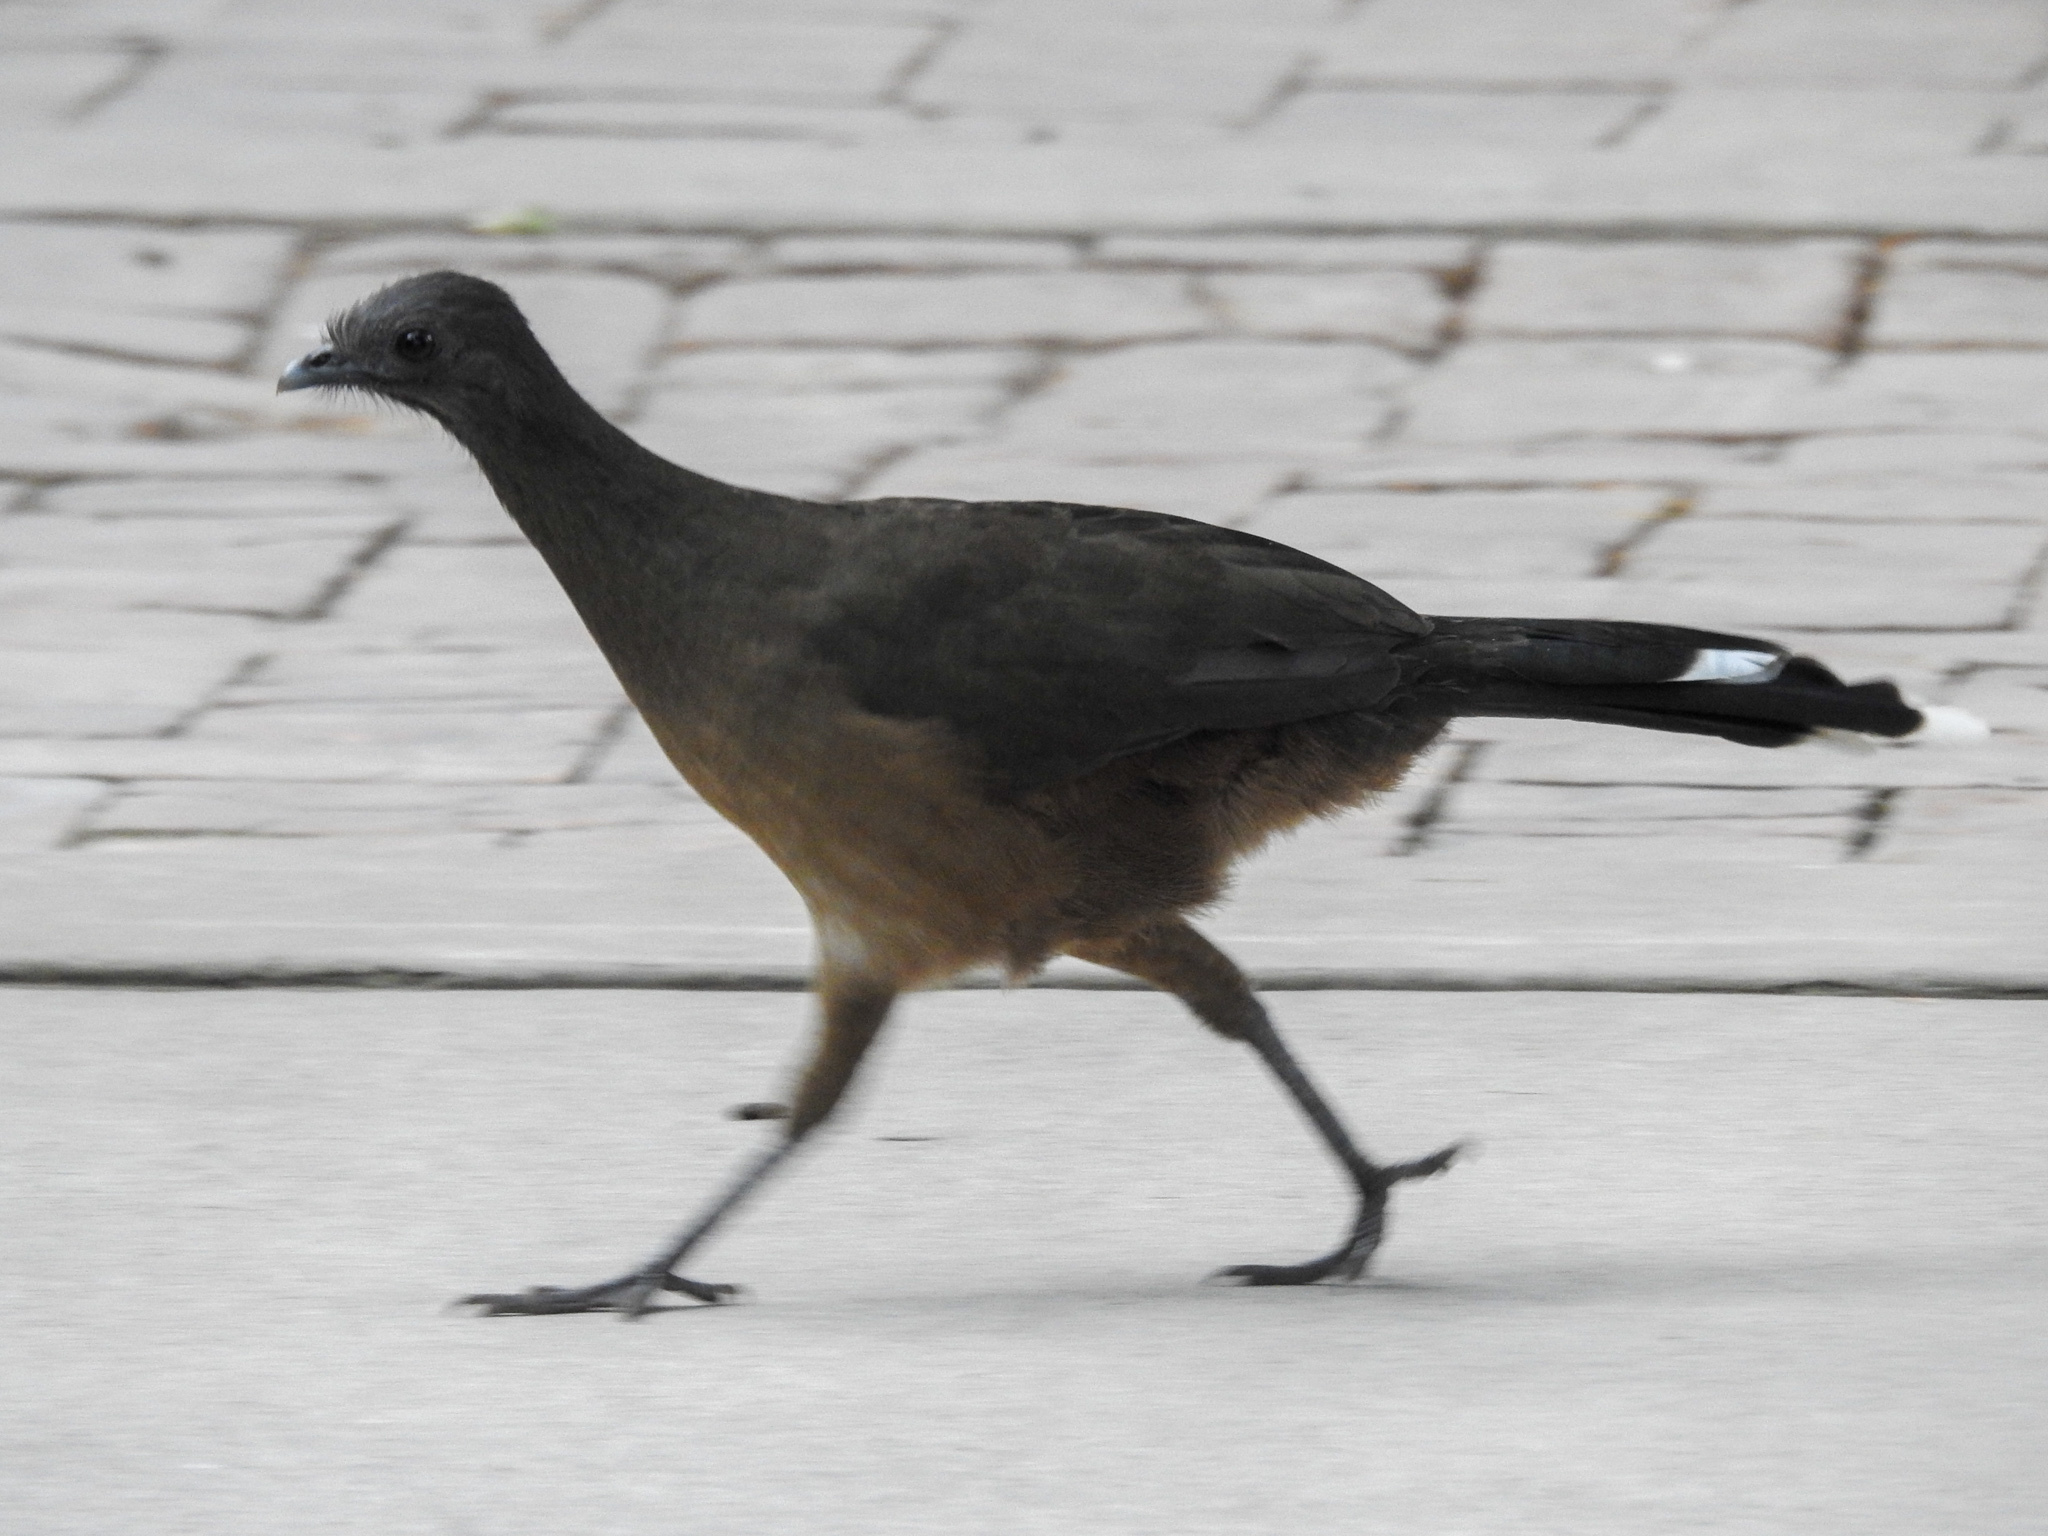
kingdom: Animalia
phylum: Chordata
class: Aves
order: Galliformes
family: Cracidae
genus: Ortalis
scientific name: Ortalis vetula
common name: Plain chachalaca
